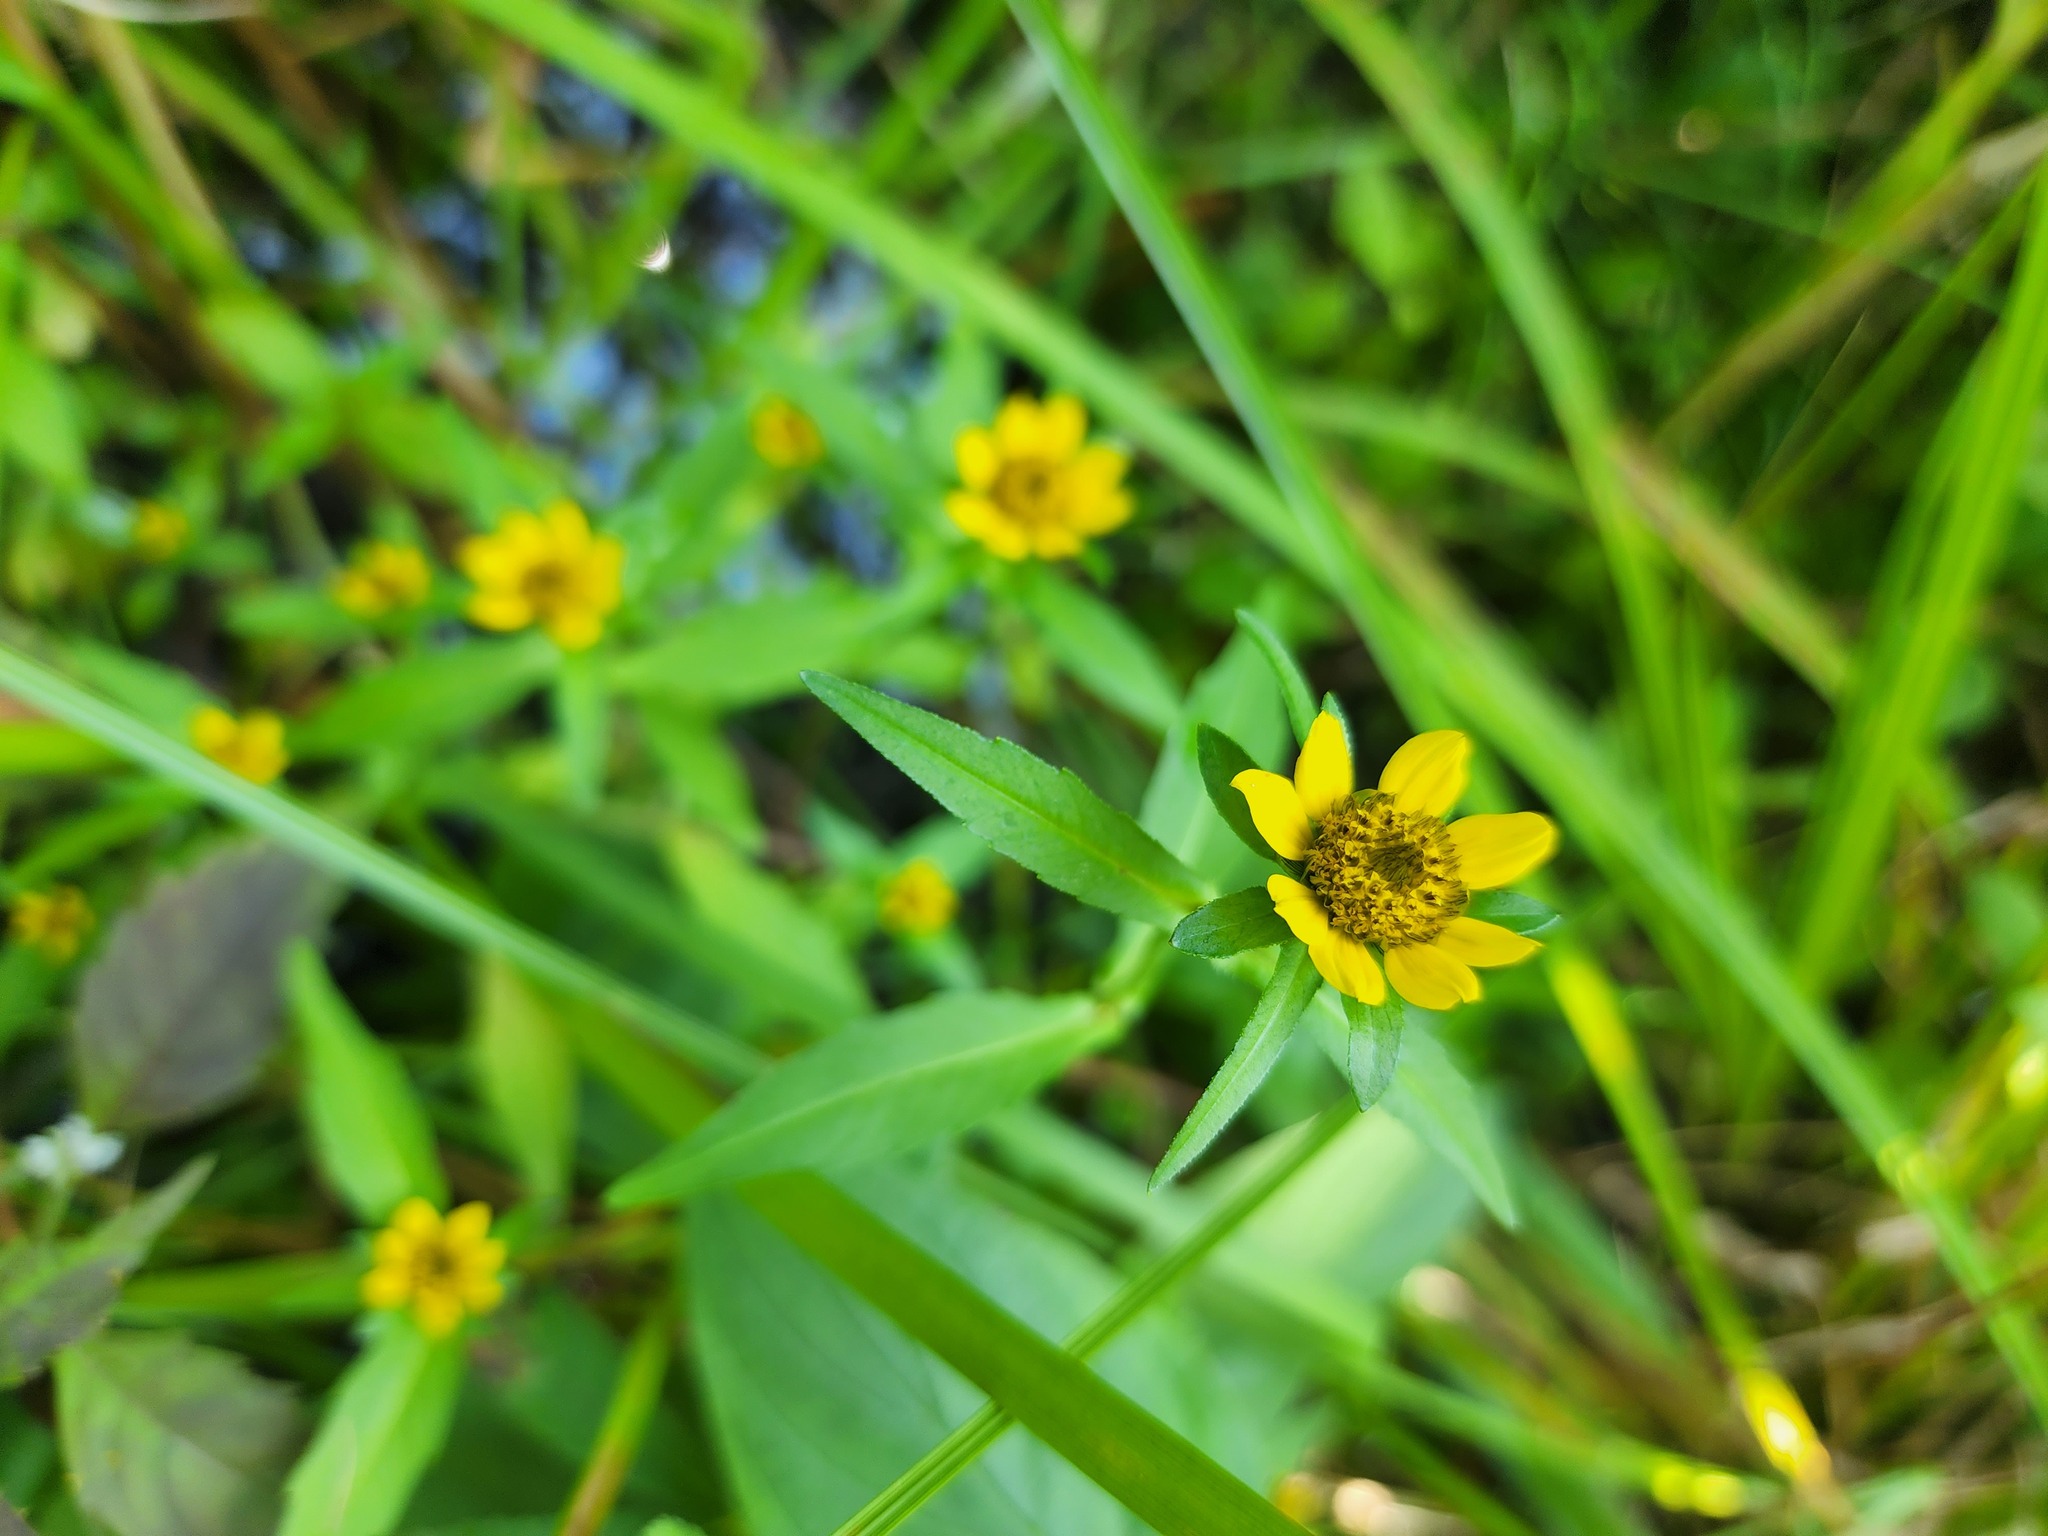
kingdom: Plantae
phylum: Tracheophyta
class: Magnoliopsida
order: Asterales
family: Asteraceae
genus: Bidens
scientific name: Bidens cernua
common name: Nodding bur-marigold
